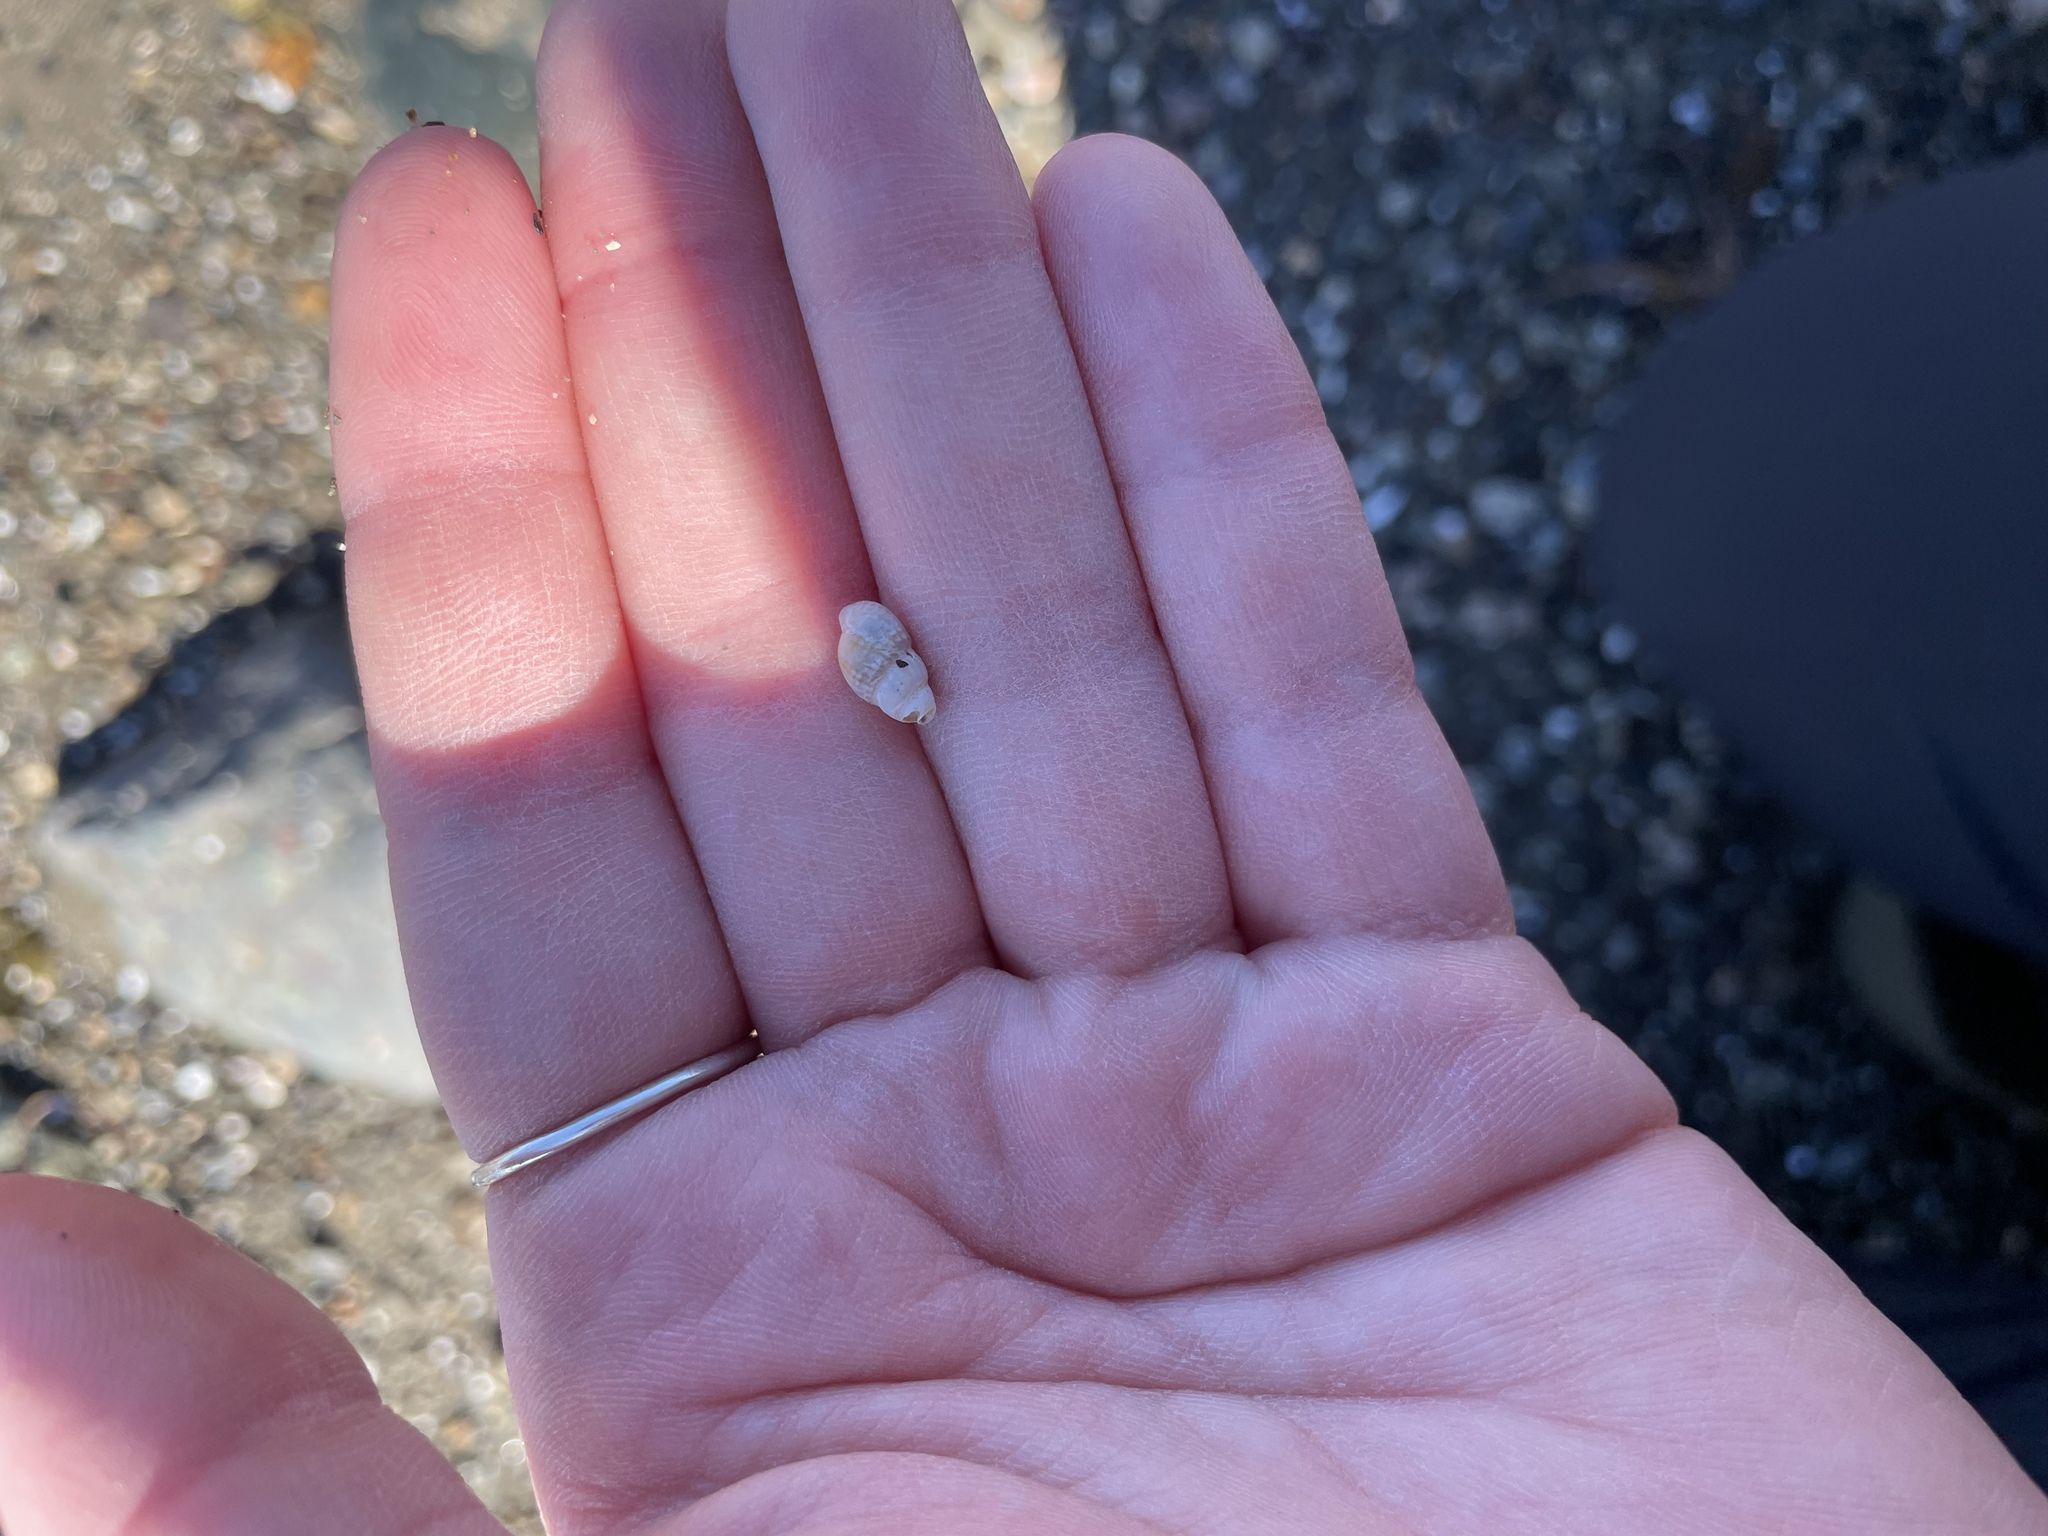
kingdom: Animalia
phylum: Mollusca
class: Gastropoda
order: Neogastropoda
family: Nassariidae
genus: Ilyanassa
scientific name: Ilyanassa trivittata
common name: Three-line mudsnail
